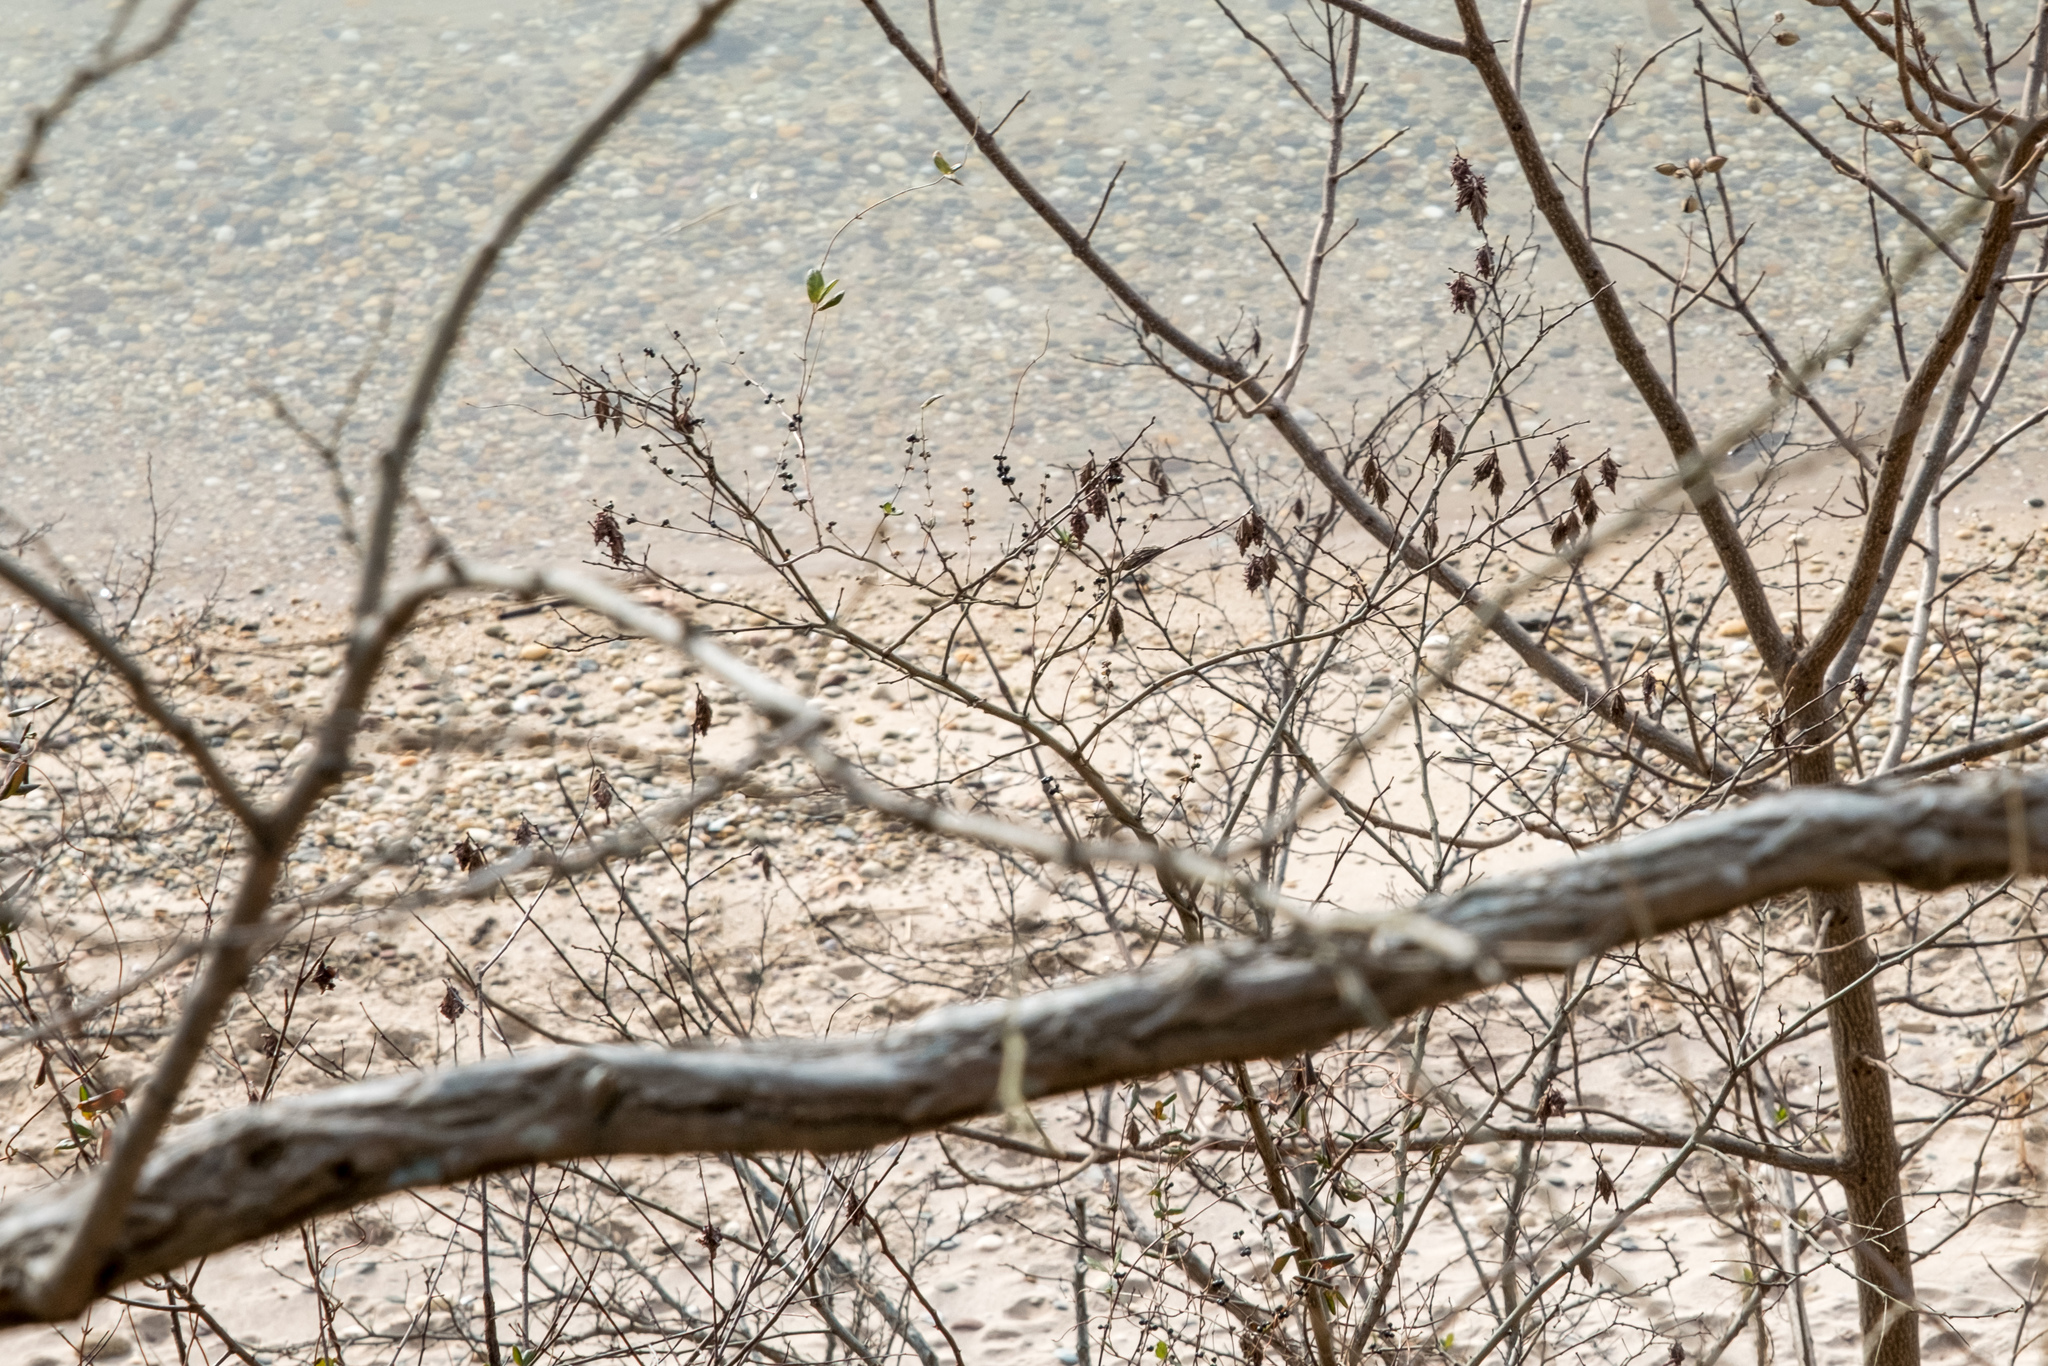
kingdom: Animalia
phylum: Arthropoda
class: Insecta
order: Lepidoptera
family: Psychidae
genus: Thyridopteryx
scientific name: Thyridopteryx ephemeraeformis
